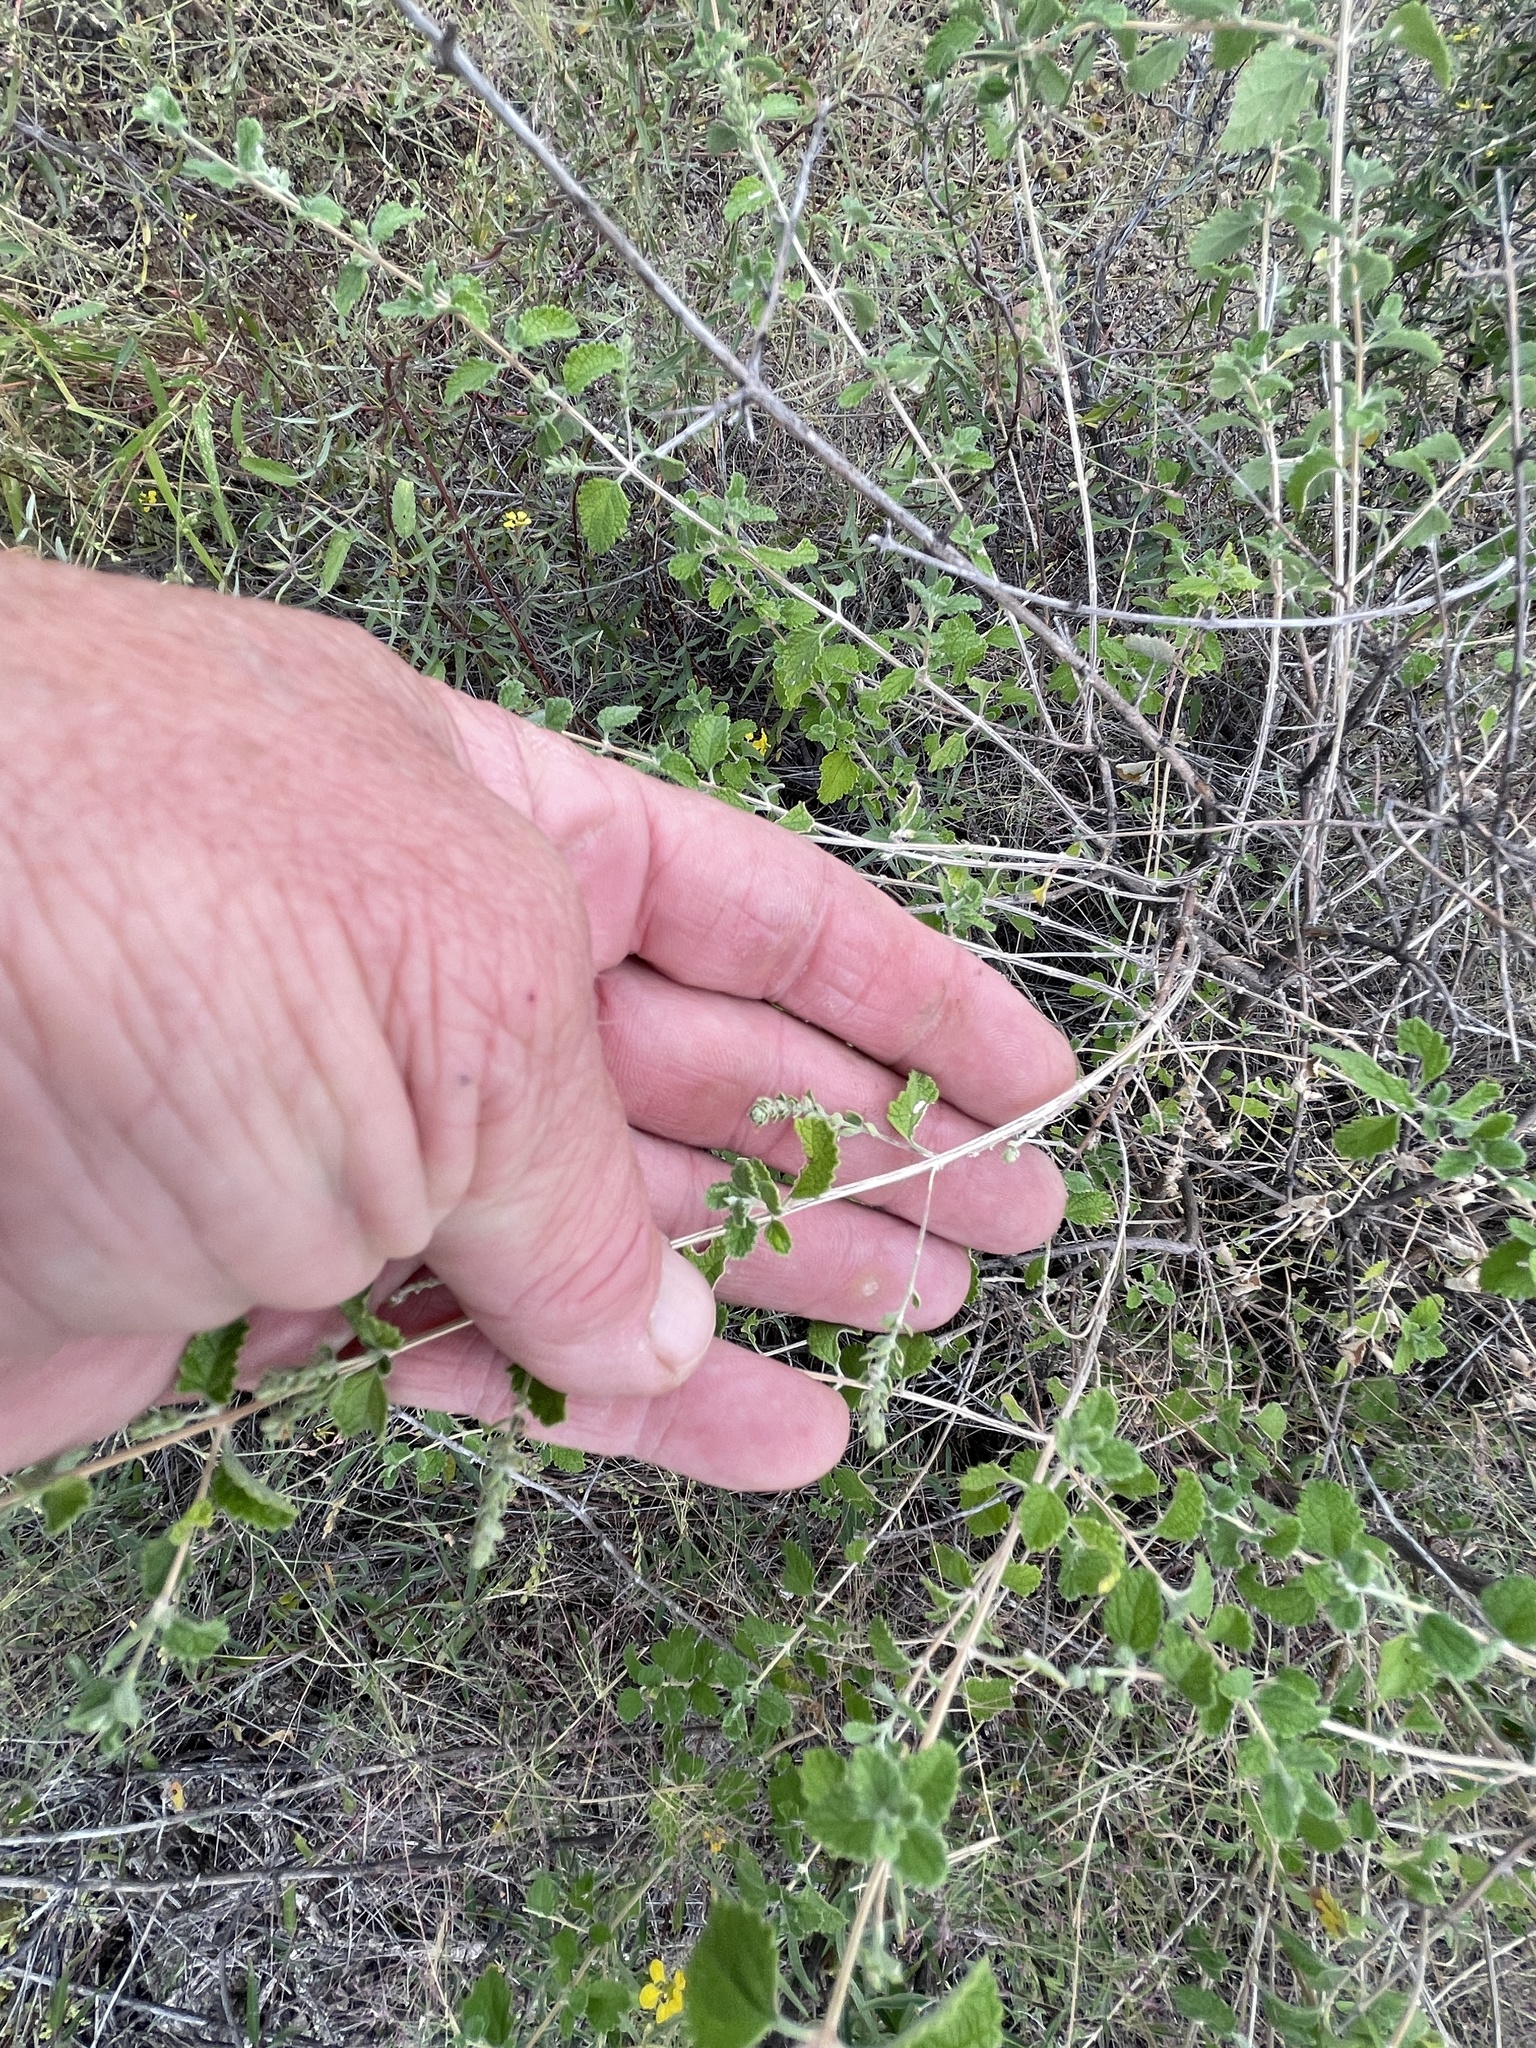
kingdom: Plantae
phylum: Tracheophyta
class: Magnoliopsida
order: Lamiales
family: Verbenaceae
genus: Aloysia
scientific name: Aloysia wrightii
